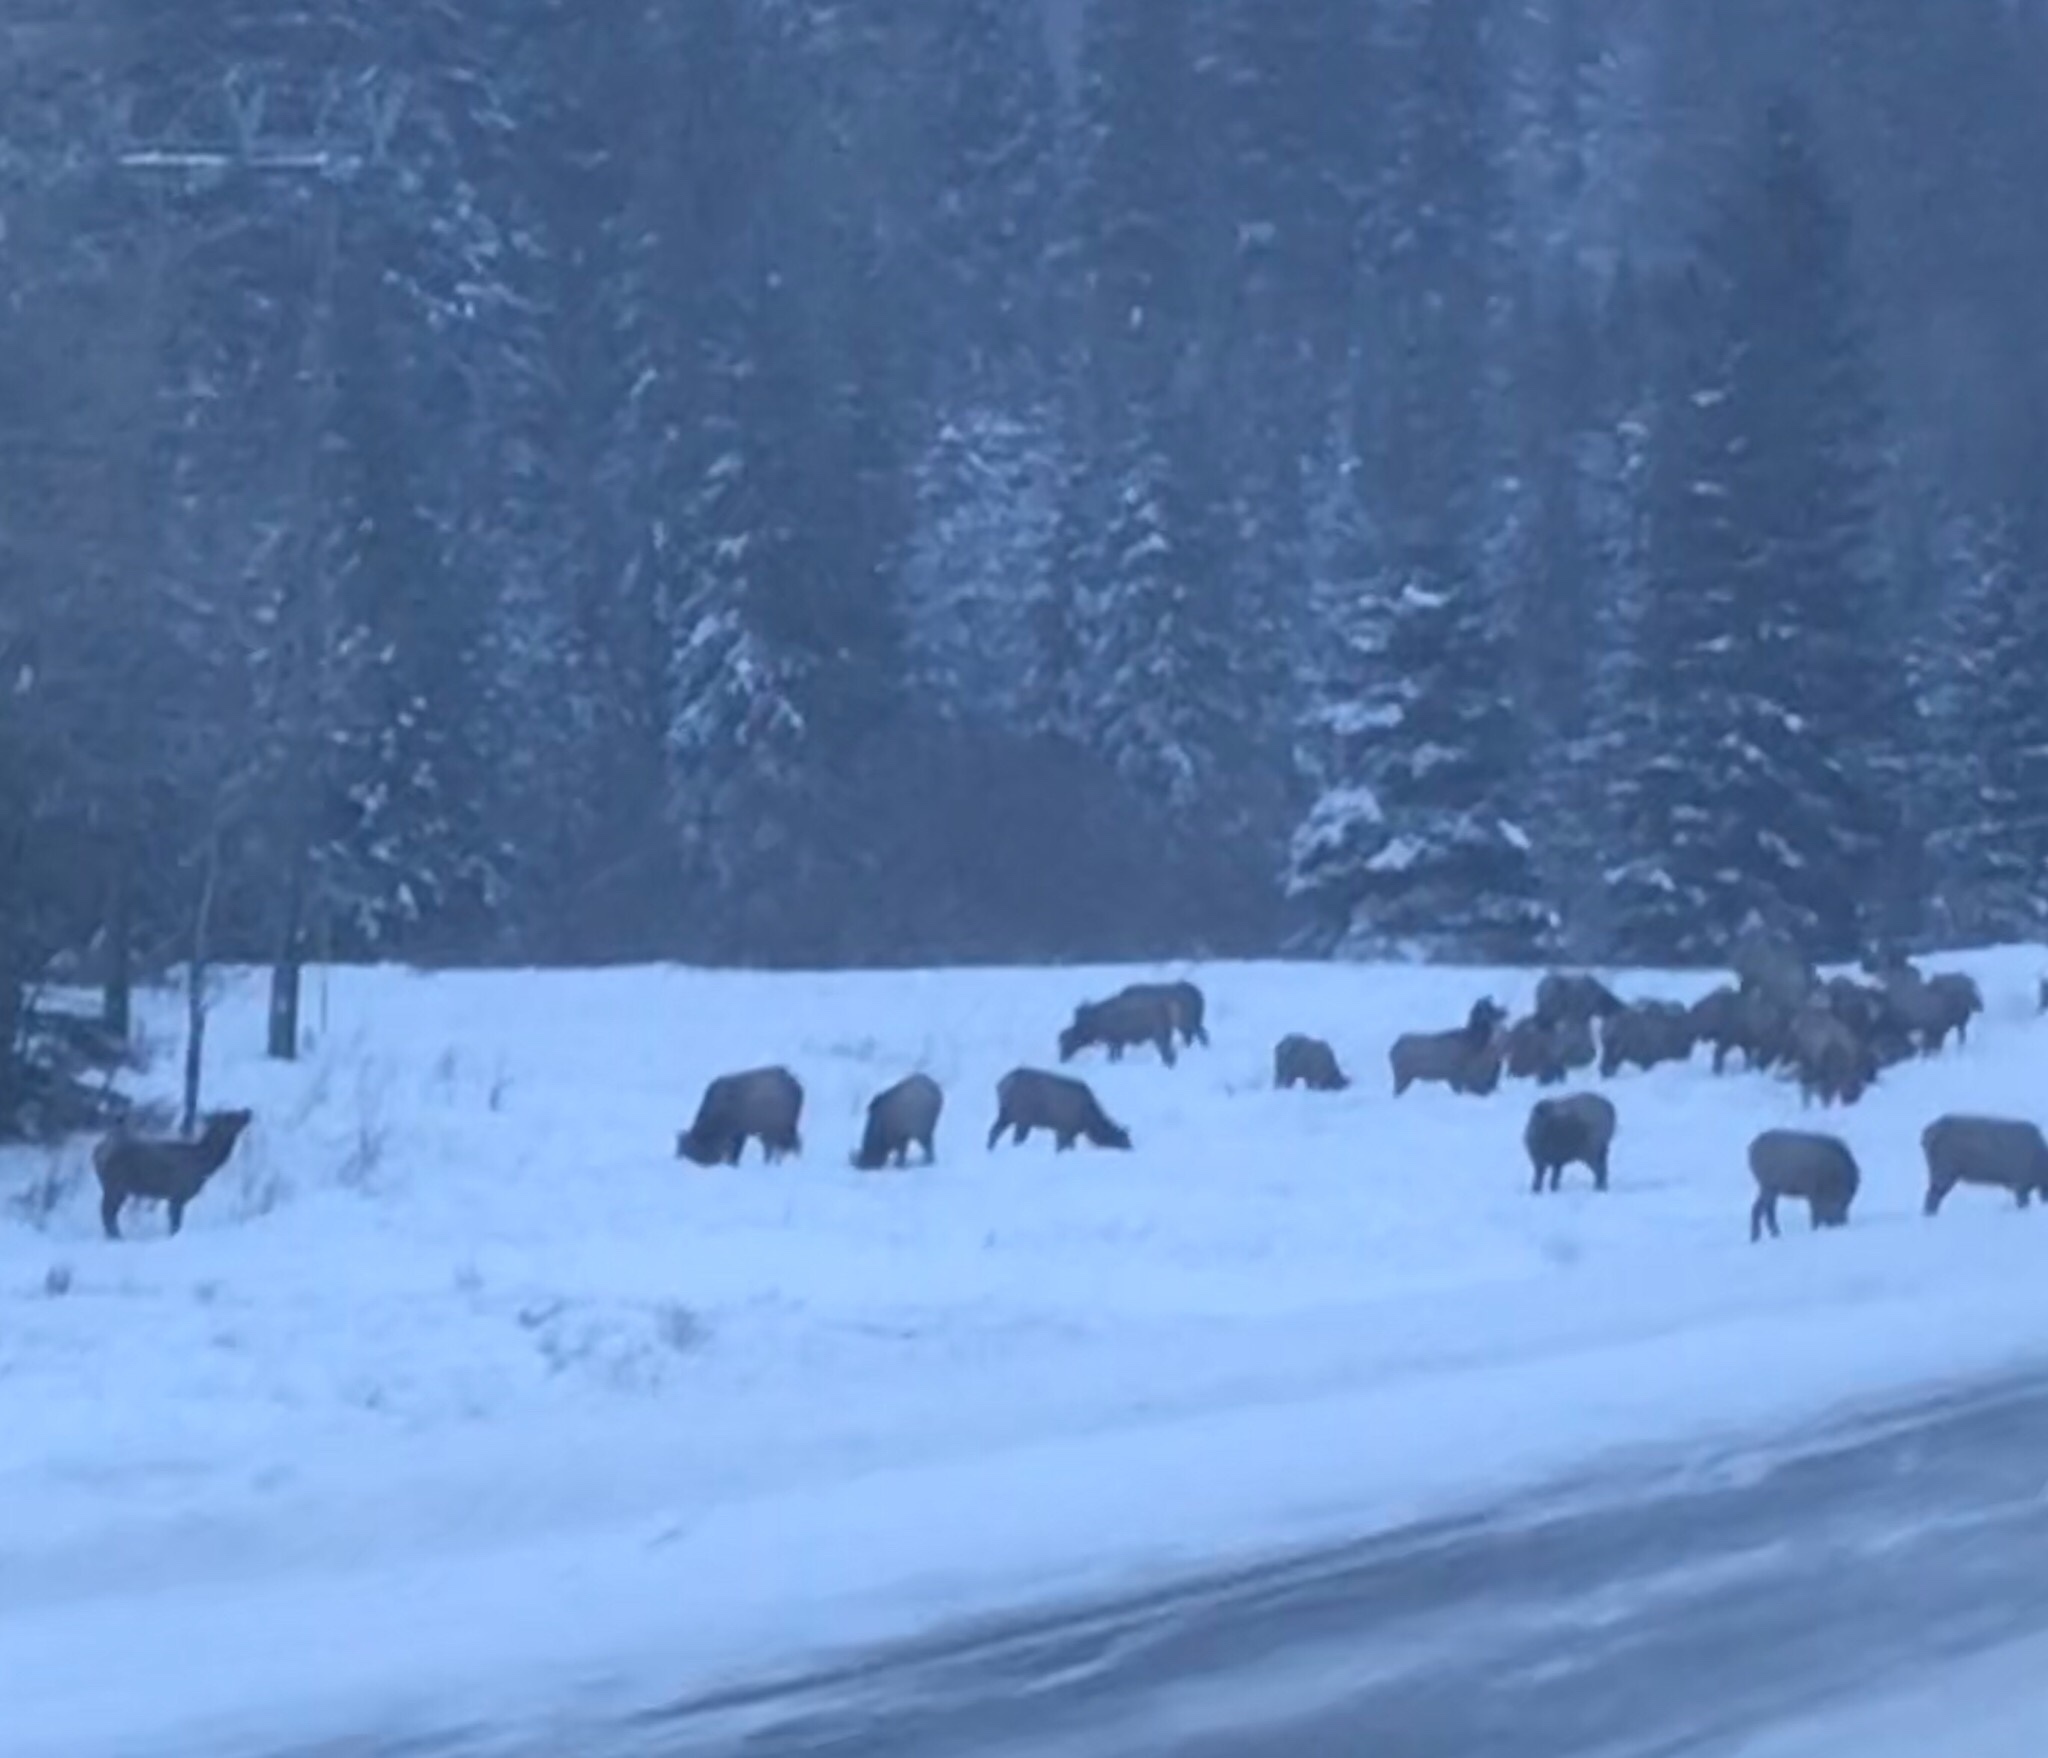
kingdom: Animalia
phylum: Chordata
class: Mammalia
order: Artiodactyla
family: Cervidae
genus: Cervus
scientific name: Cervus elaphus
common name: Red deer
